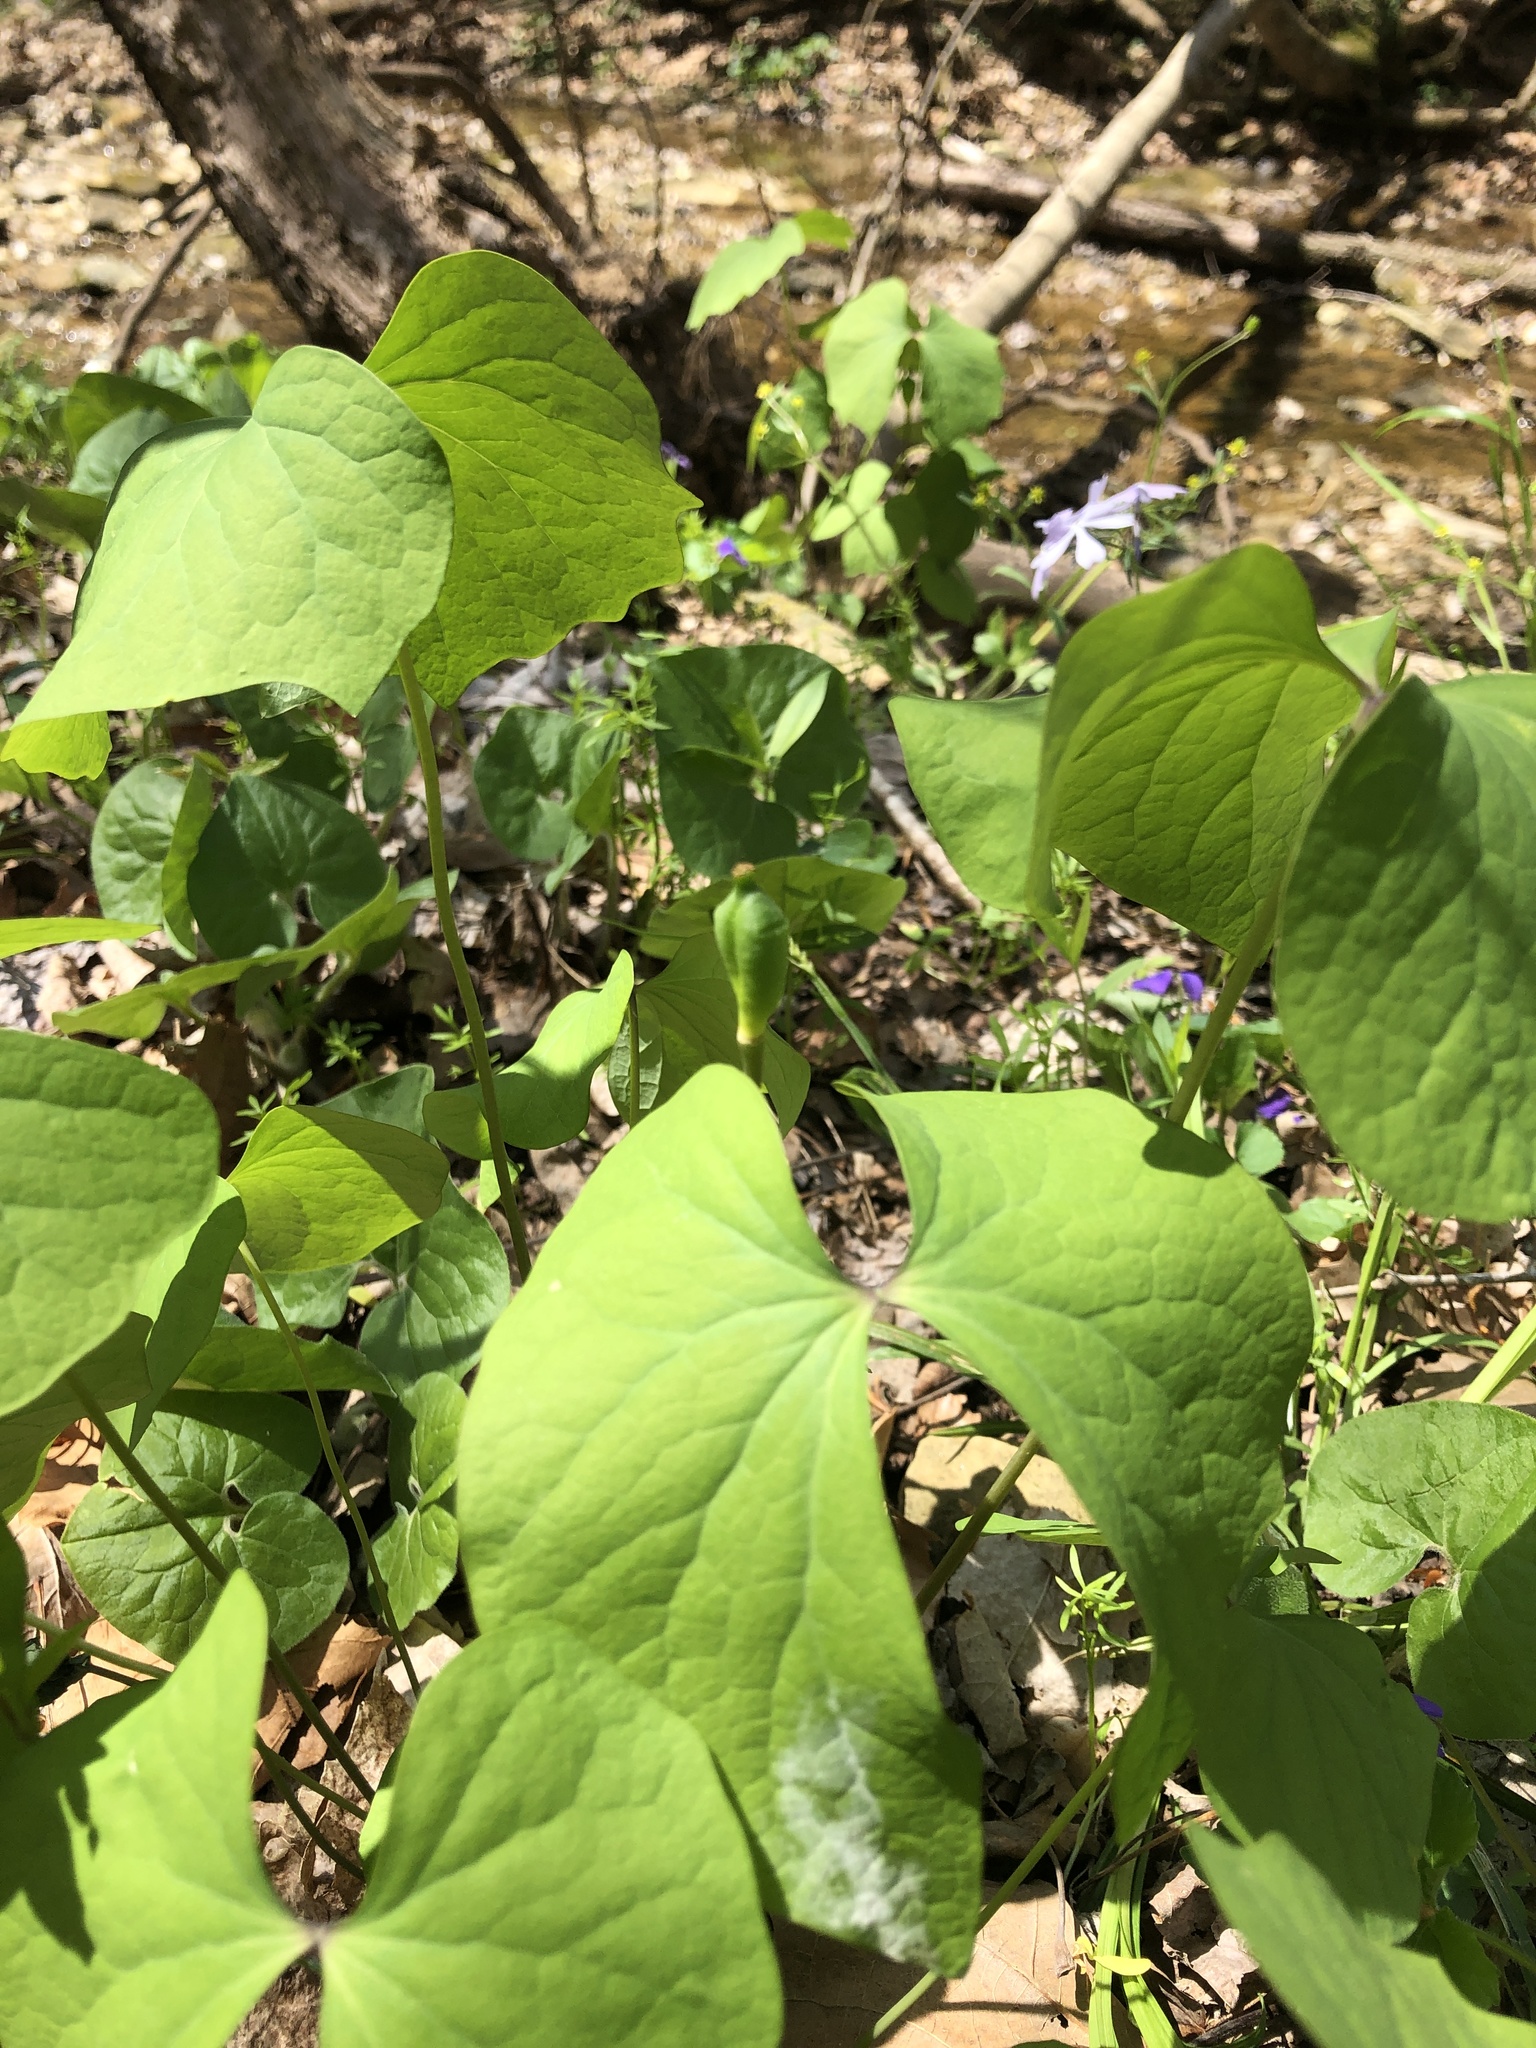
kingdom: Plantae
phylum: Tracheophyta
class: Magnoliopsida
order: Ranunculales
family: Berberidaceae
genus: Jeffersonia
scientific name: Jeffersonia diphylla
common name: Rheumatism-root
